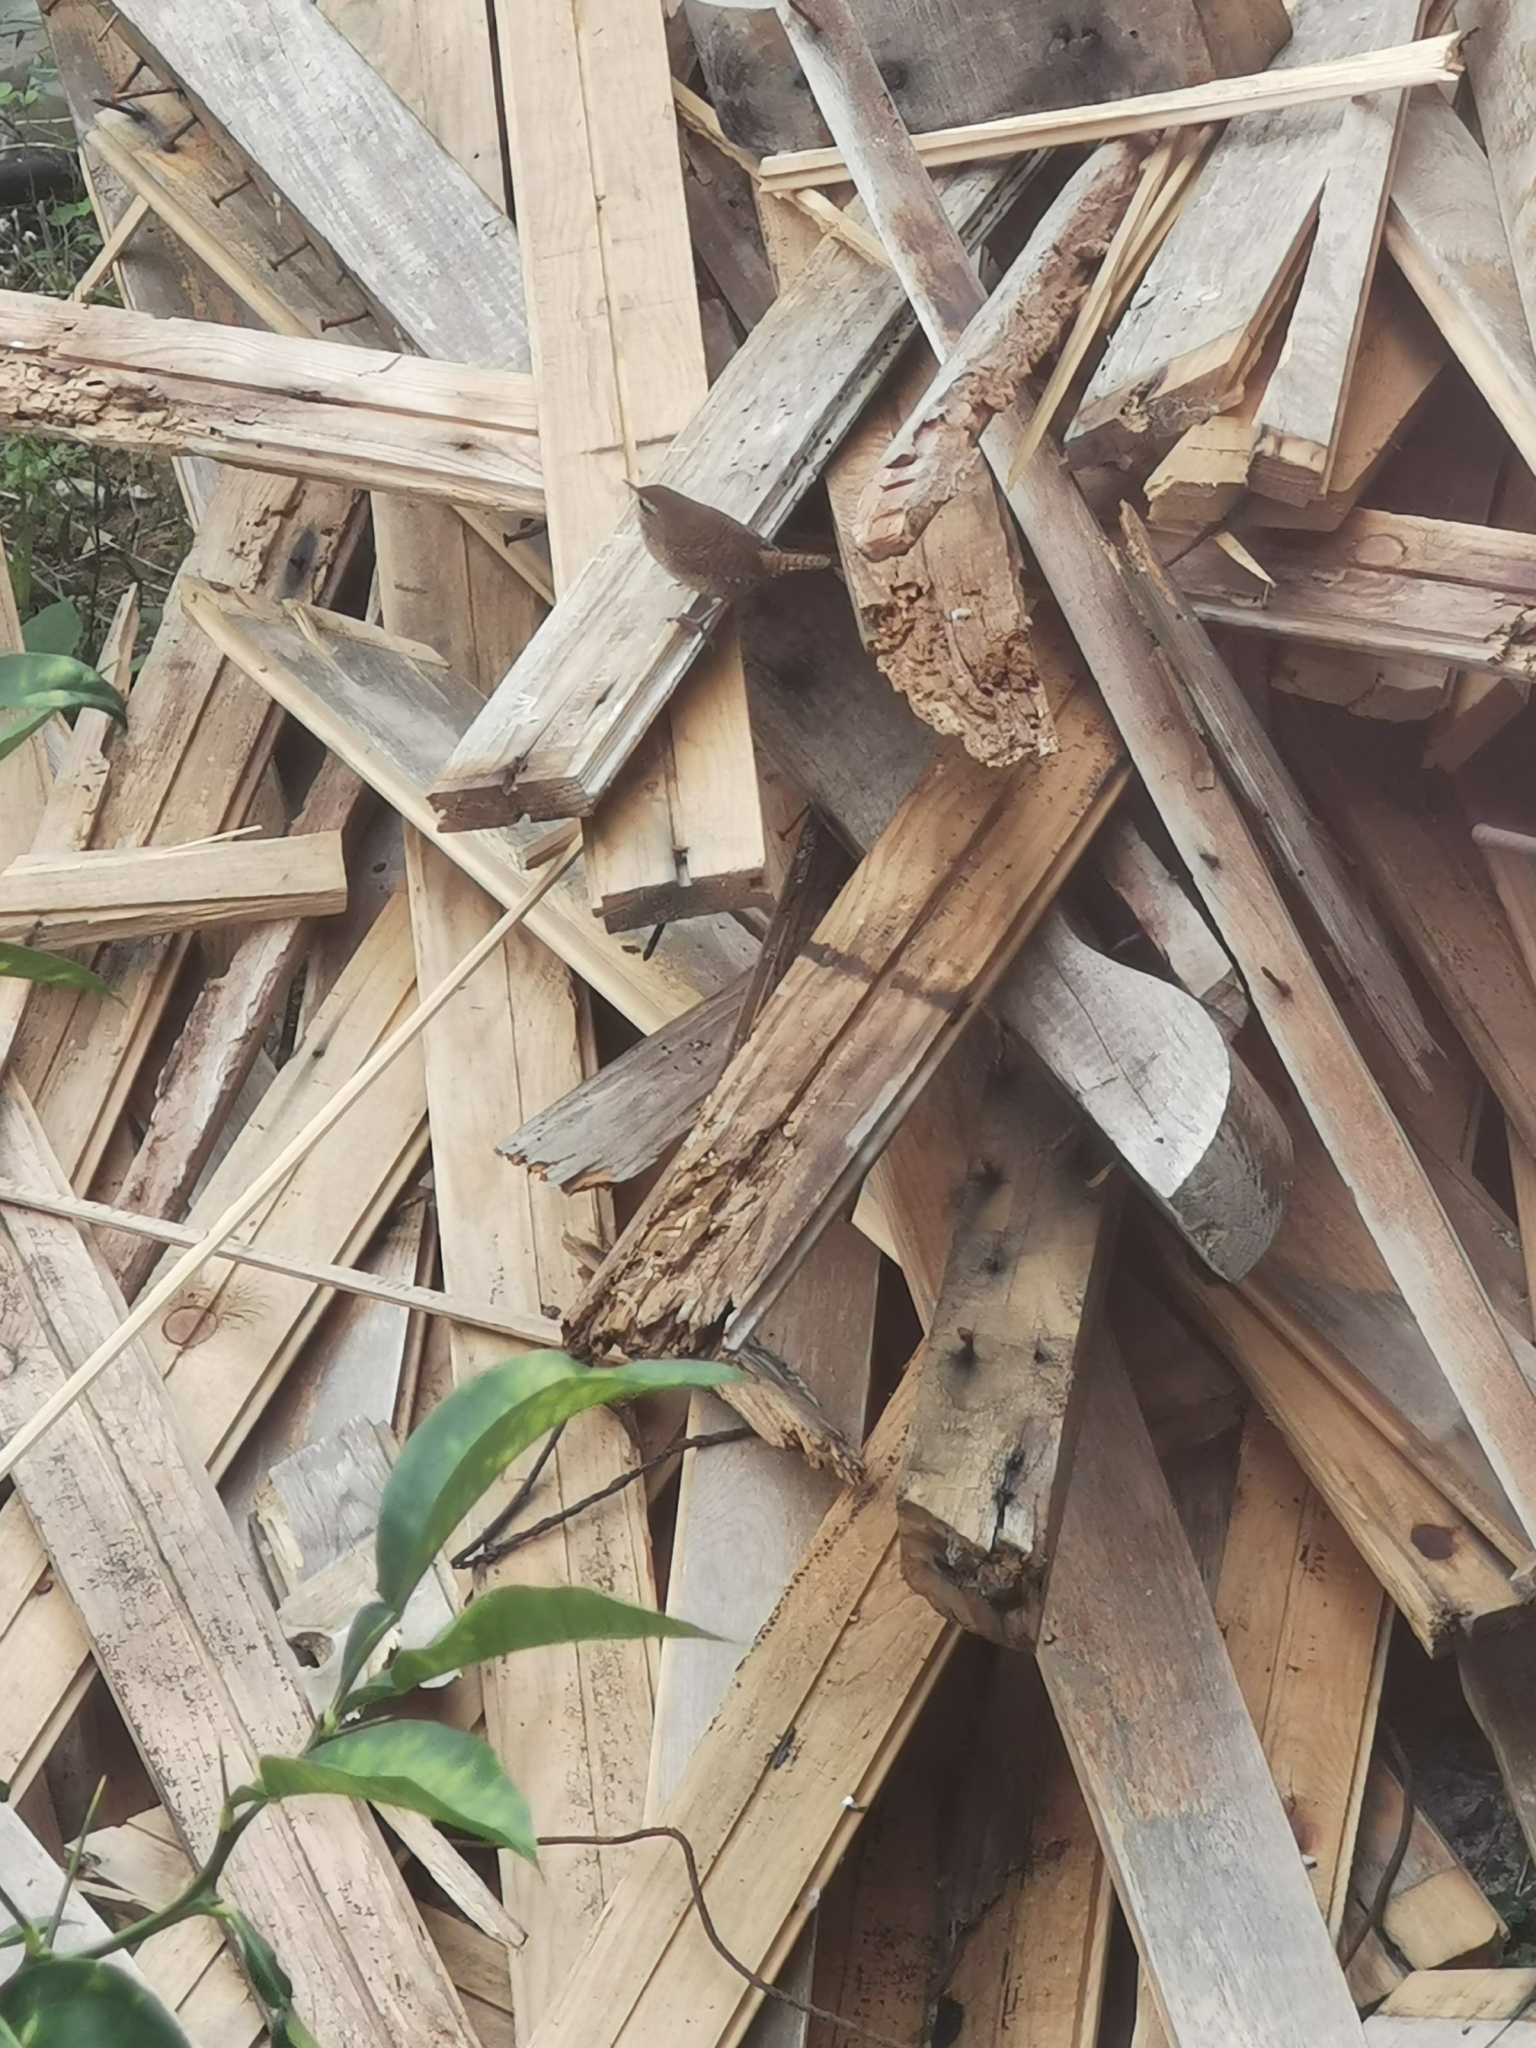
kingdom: Animalia
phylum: Chordata
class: Aves
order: Passeriformes
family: Troglodytidae
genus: Troglodytes
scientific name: Troglodytes troglodytes
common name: Eurasian wren
